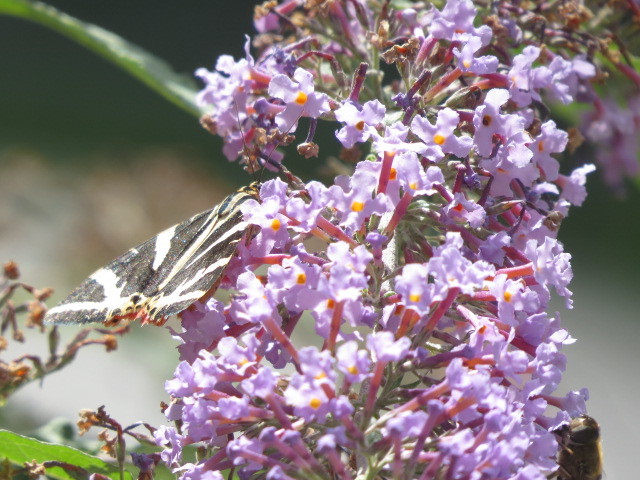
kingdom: Animalia
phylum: Arthropoda
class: Insecta
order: Lepidoptera
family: Erebidae
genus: Euplagia
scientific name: Euplagia quadripunctaria
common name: Jersey tiger
